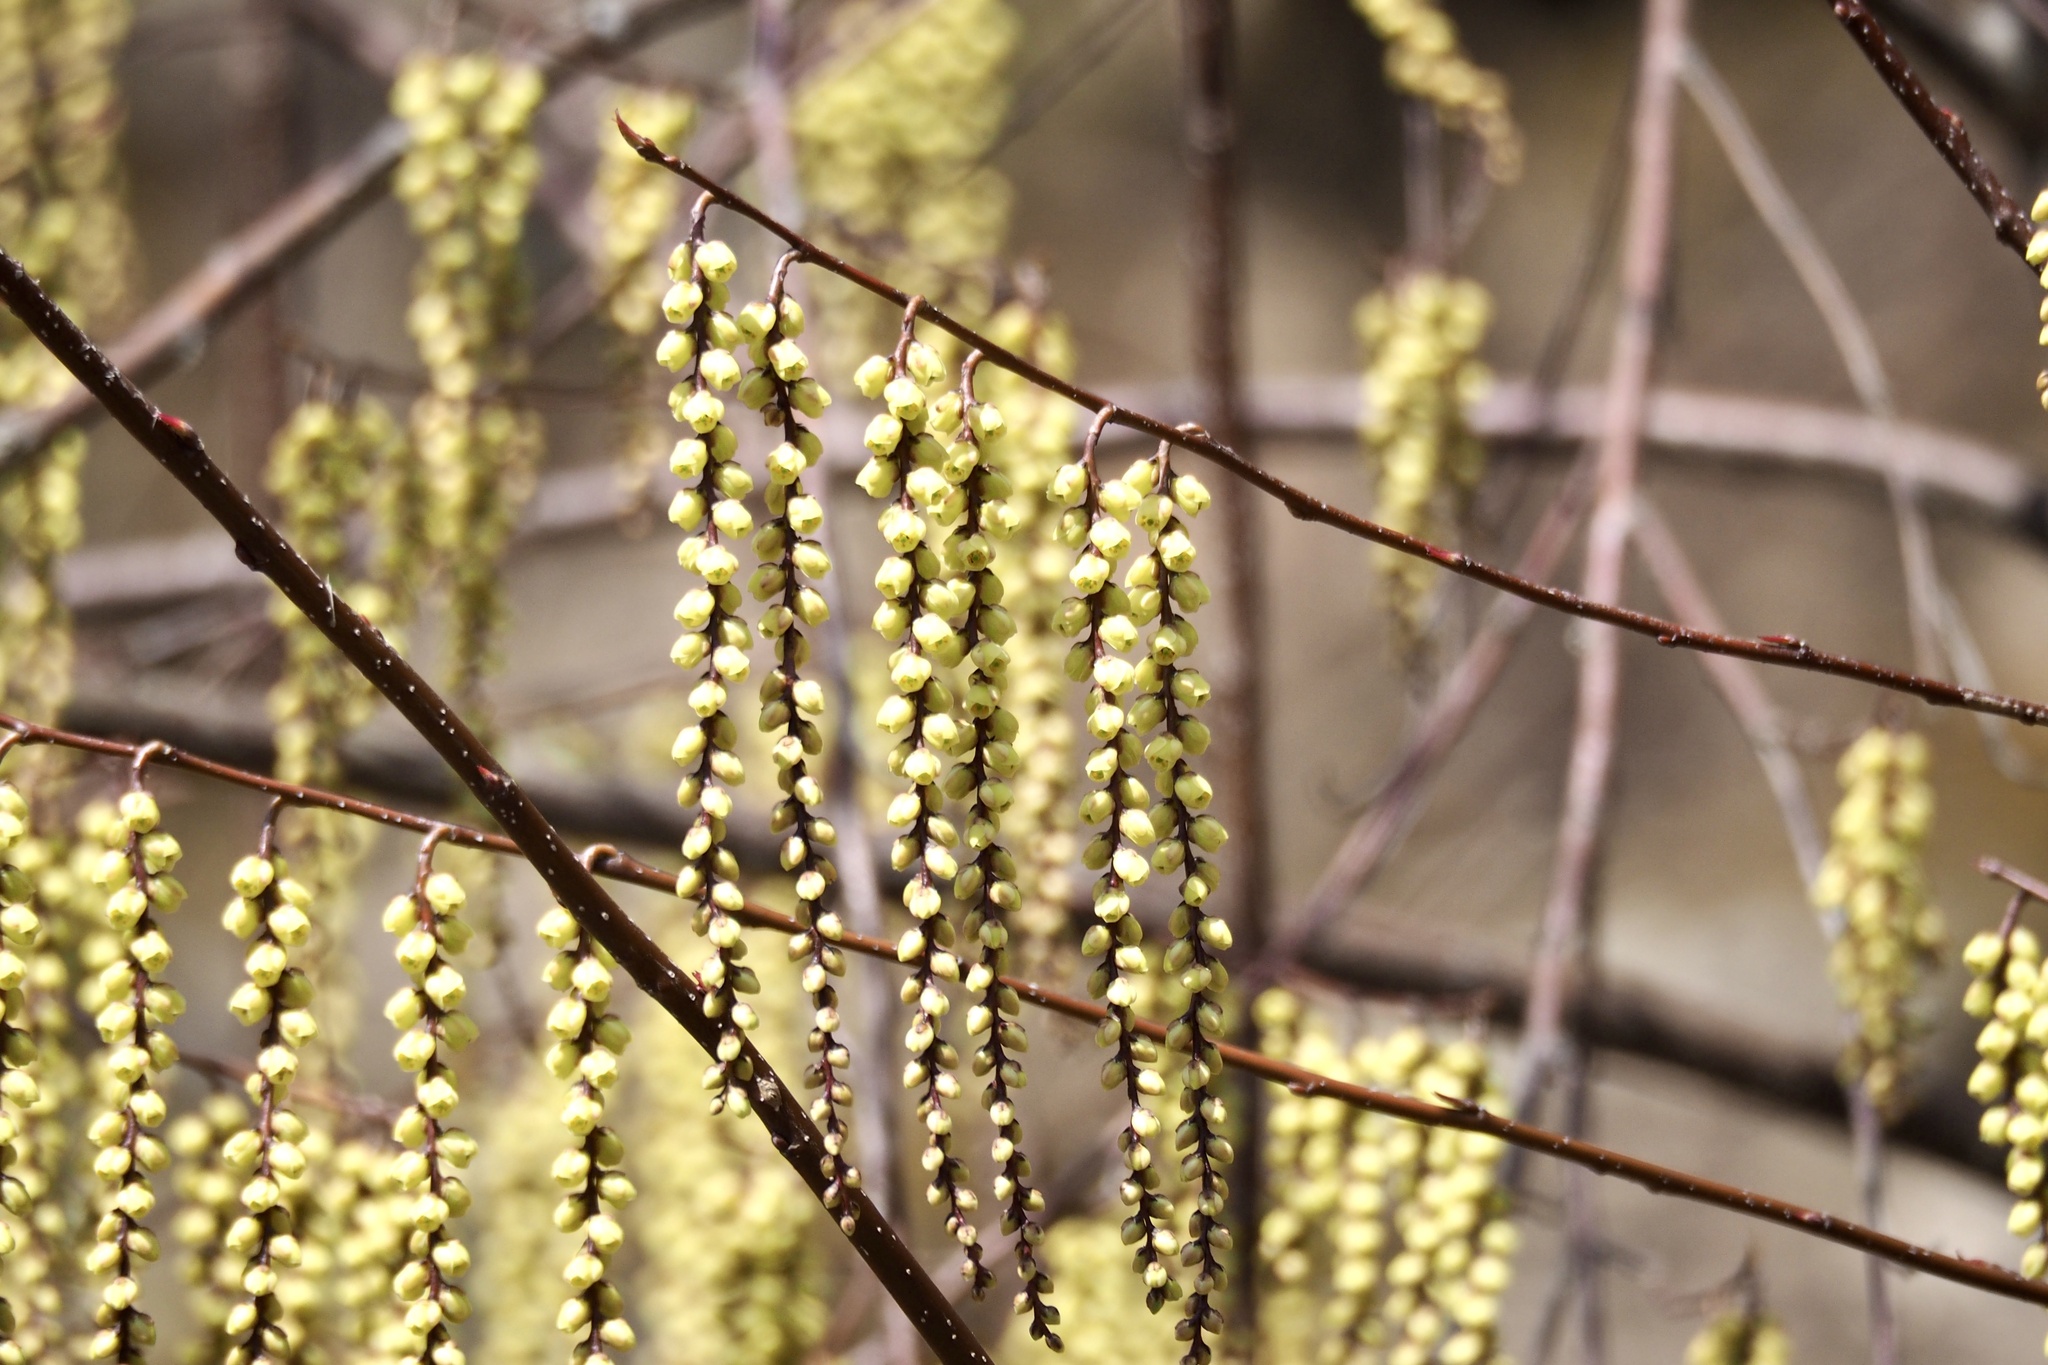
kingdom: Plantae
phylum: Tracheophyta
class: Magnoliopsida
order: Crossosomatales
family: Stachyuraceae
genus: Stachyurus
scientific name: Stachyurus praecox
